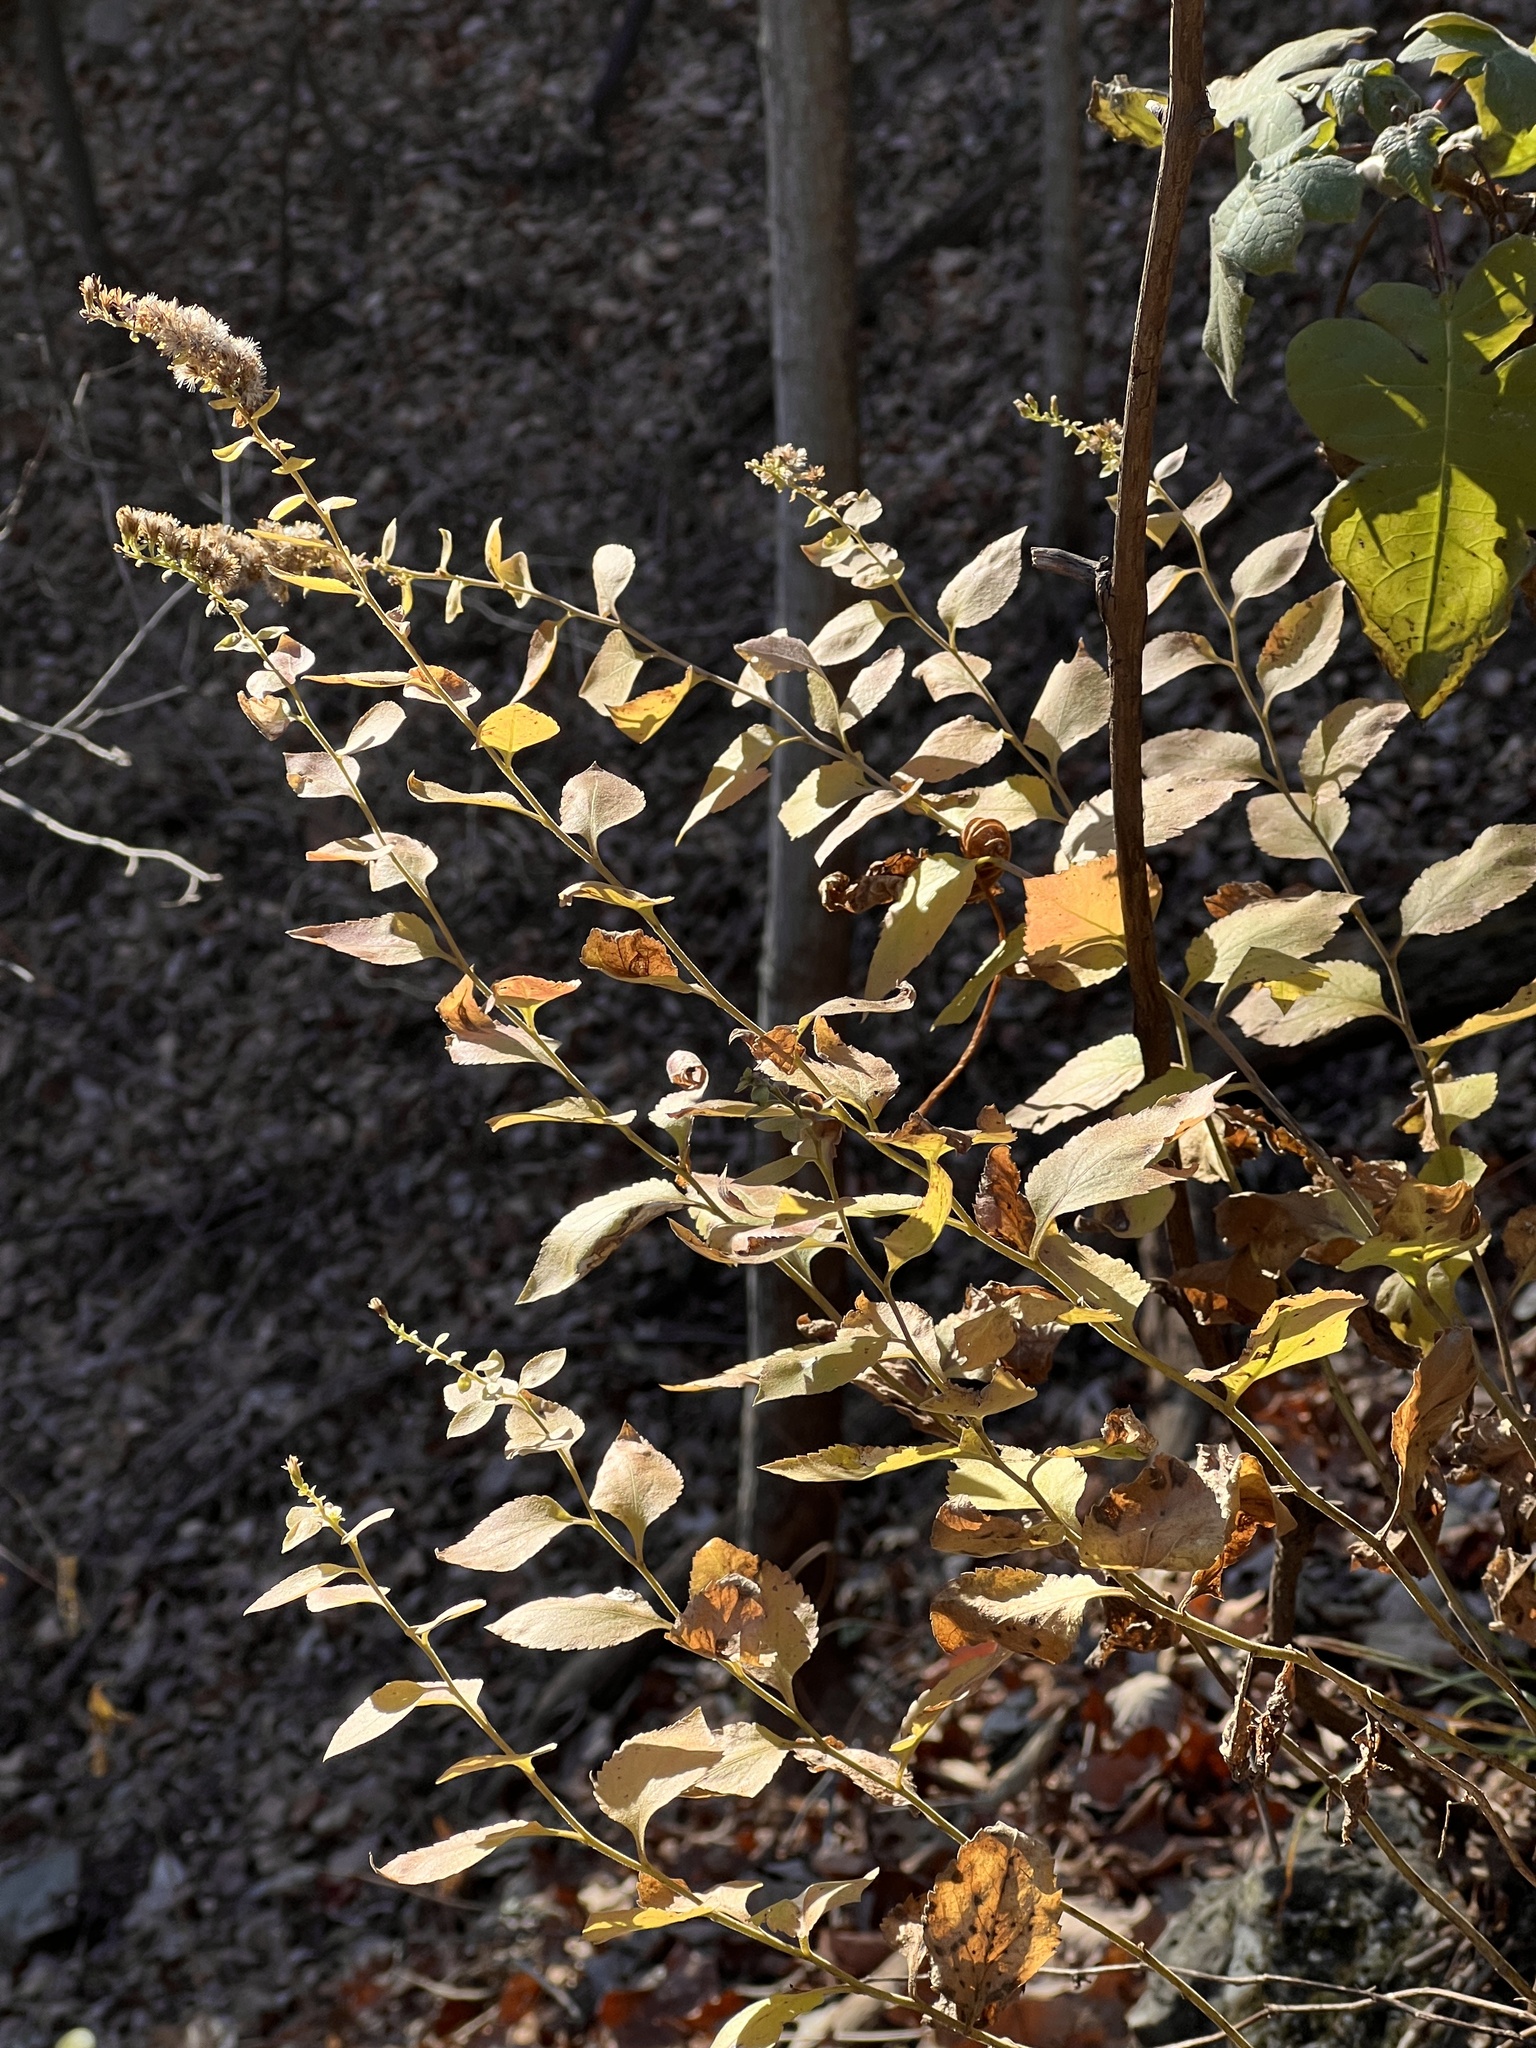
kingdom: Plantae
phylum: Tracheophyta
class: Magnoliopsida
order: Asterales
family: Asteraceae
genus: Solidago
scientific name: Solidago drummondii
